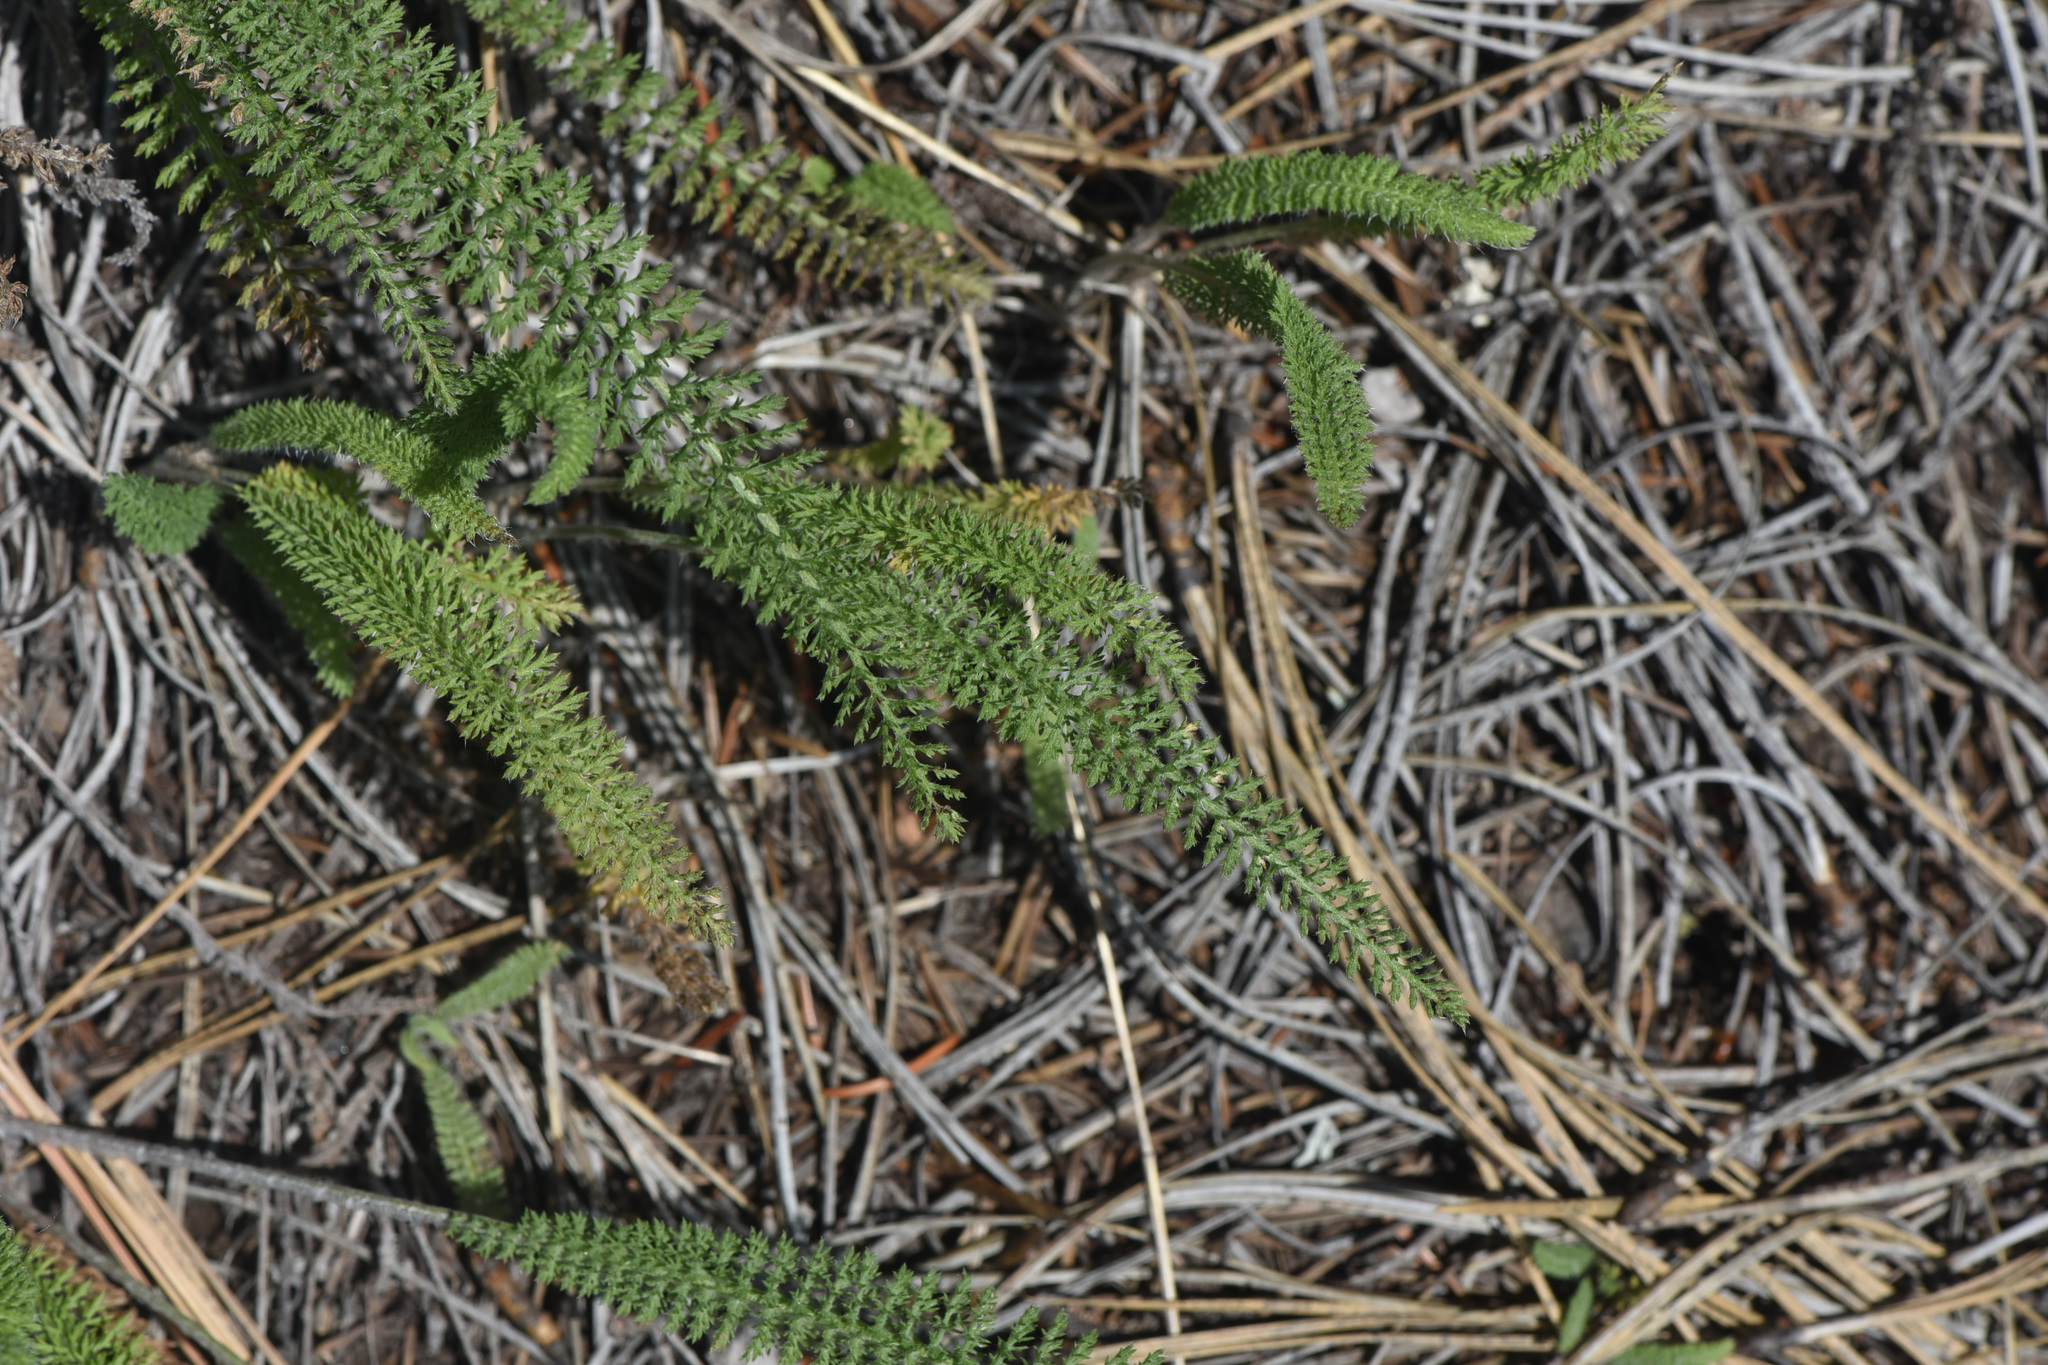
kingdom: Plantae
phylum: Tracheophyta
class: Magnoliopsida
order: Asterales
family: Asteraceae
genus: Achillea
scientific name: Achillea millefolium
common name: Yarrow
